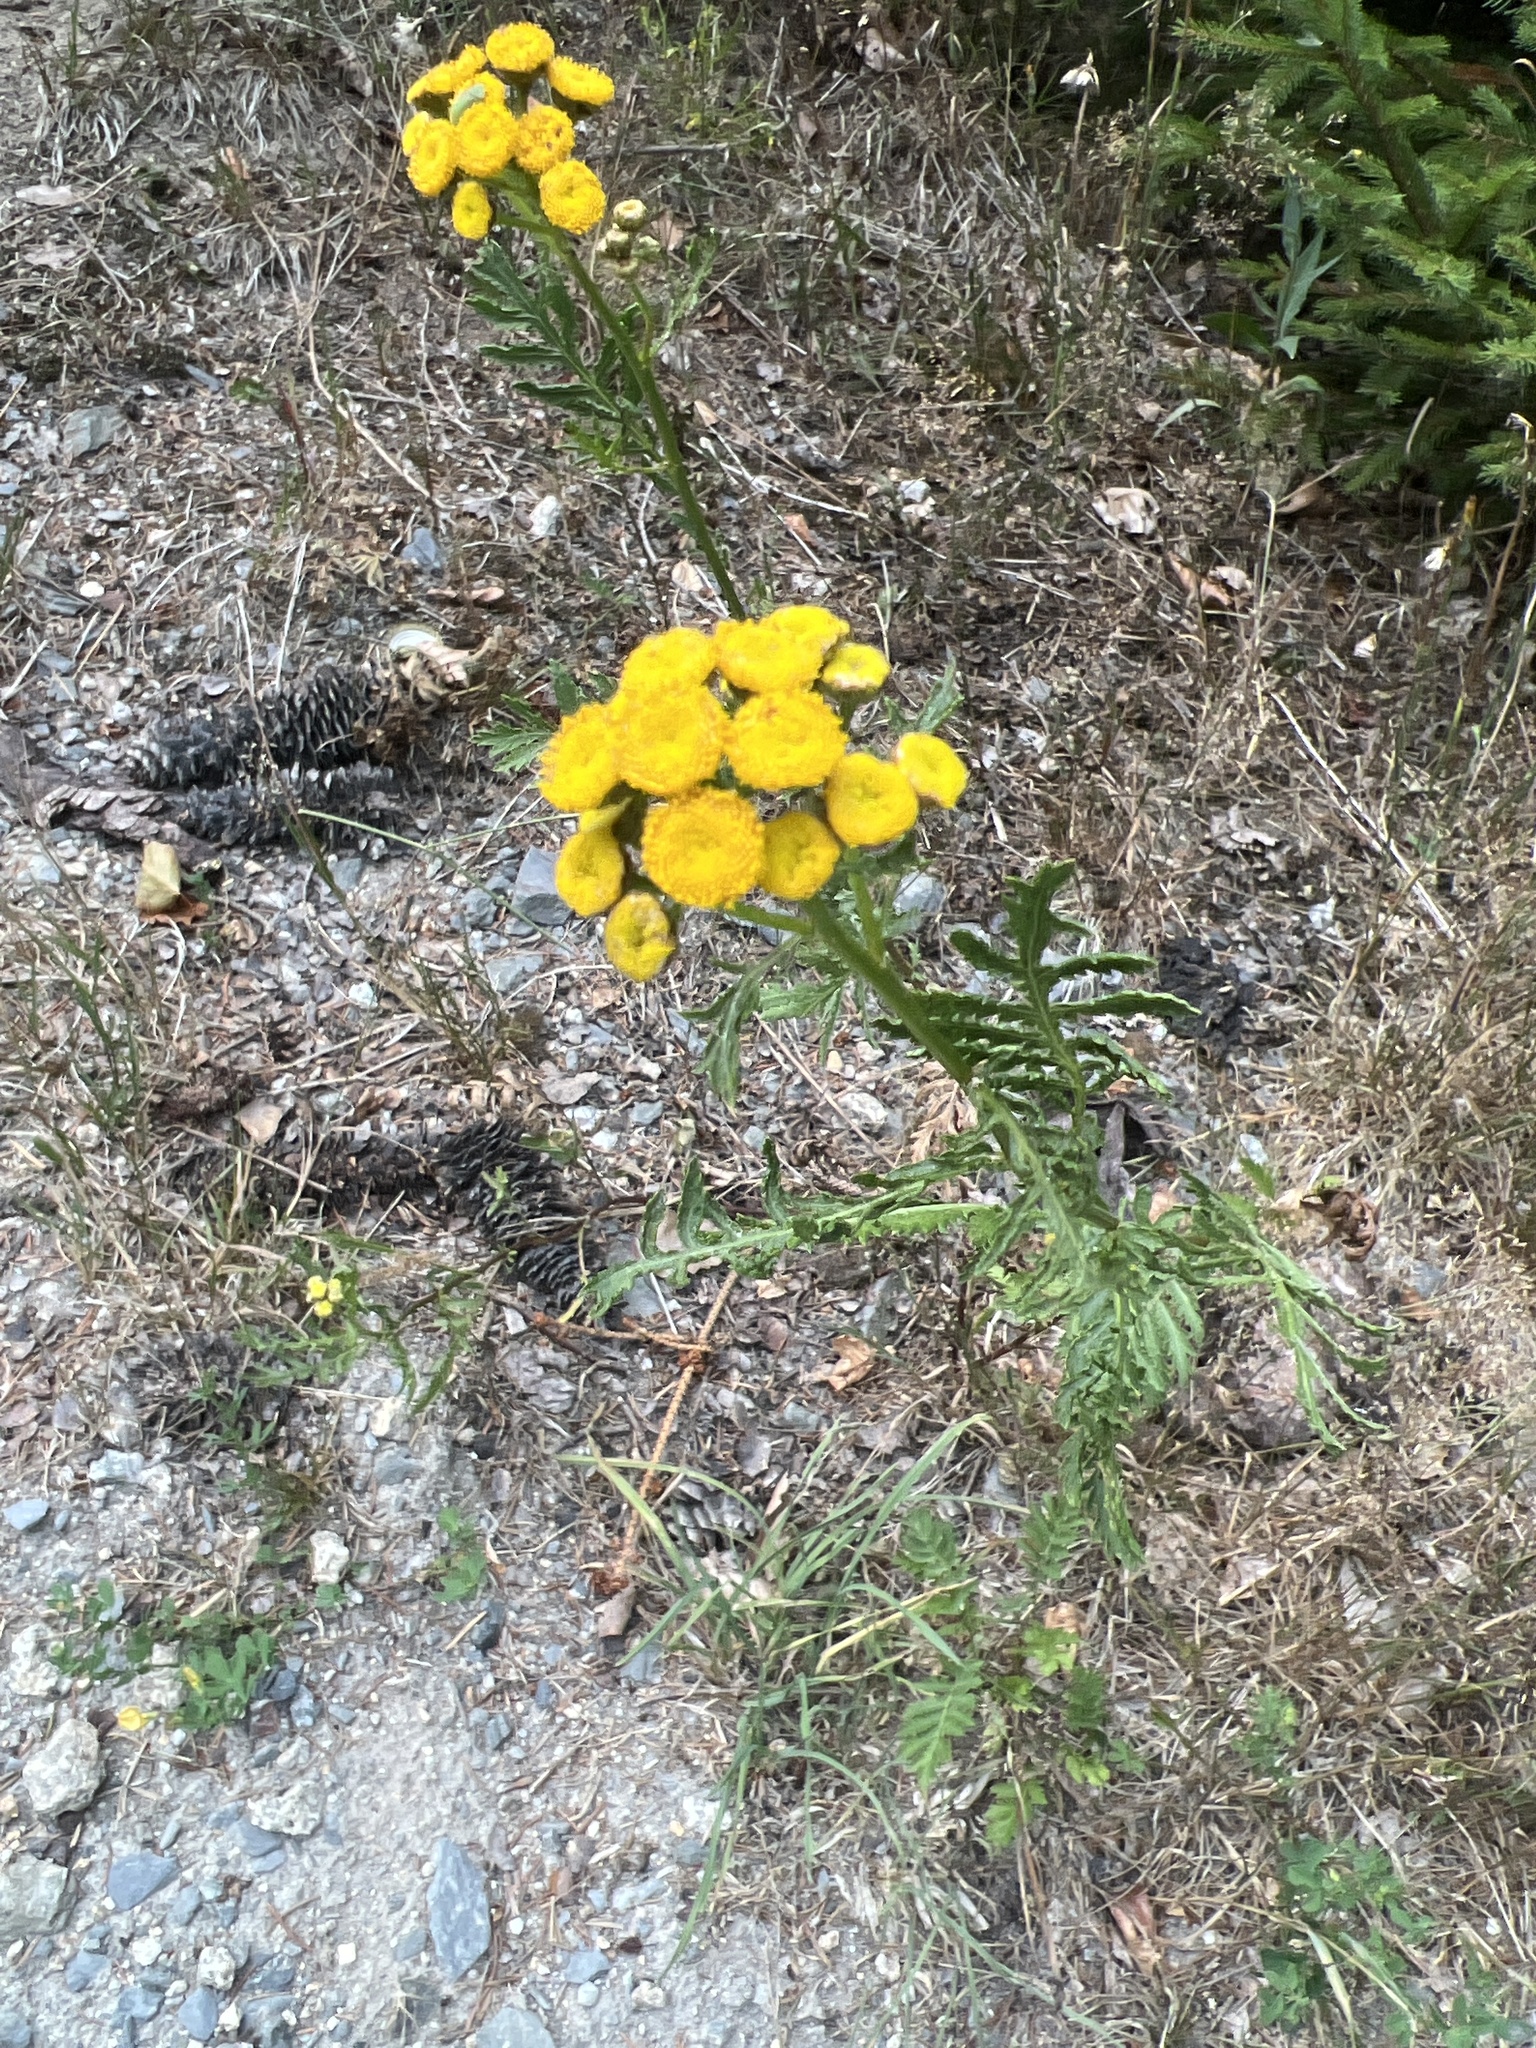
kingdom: Plantae
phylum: Tracheophyta
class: Magnoliopsida
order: Asterales
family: Asteraceae
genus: Tanacetum
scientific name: Tanacetum vulgare
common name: Common tansy
